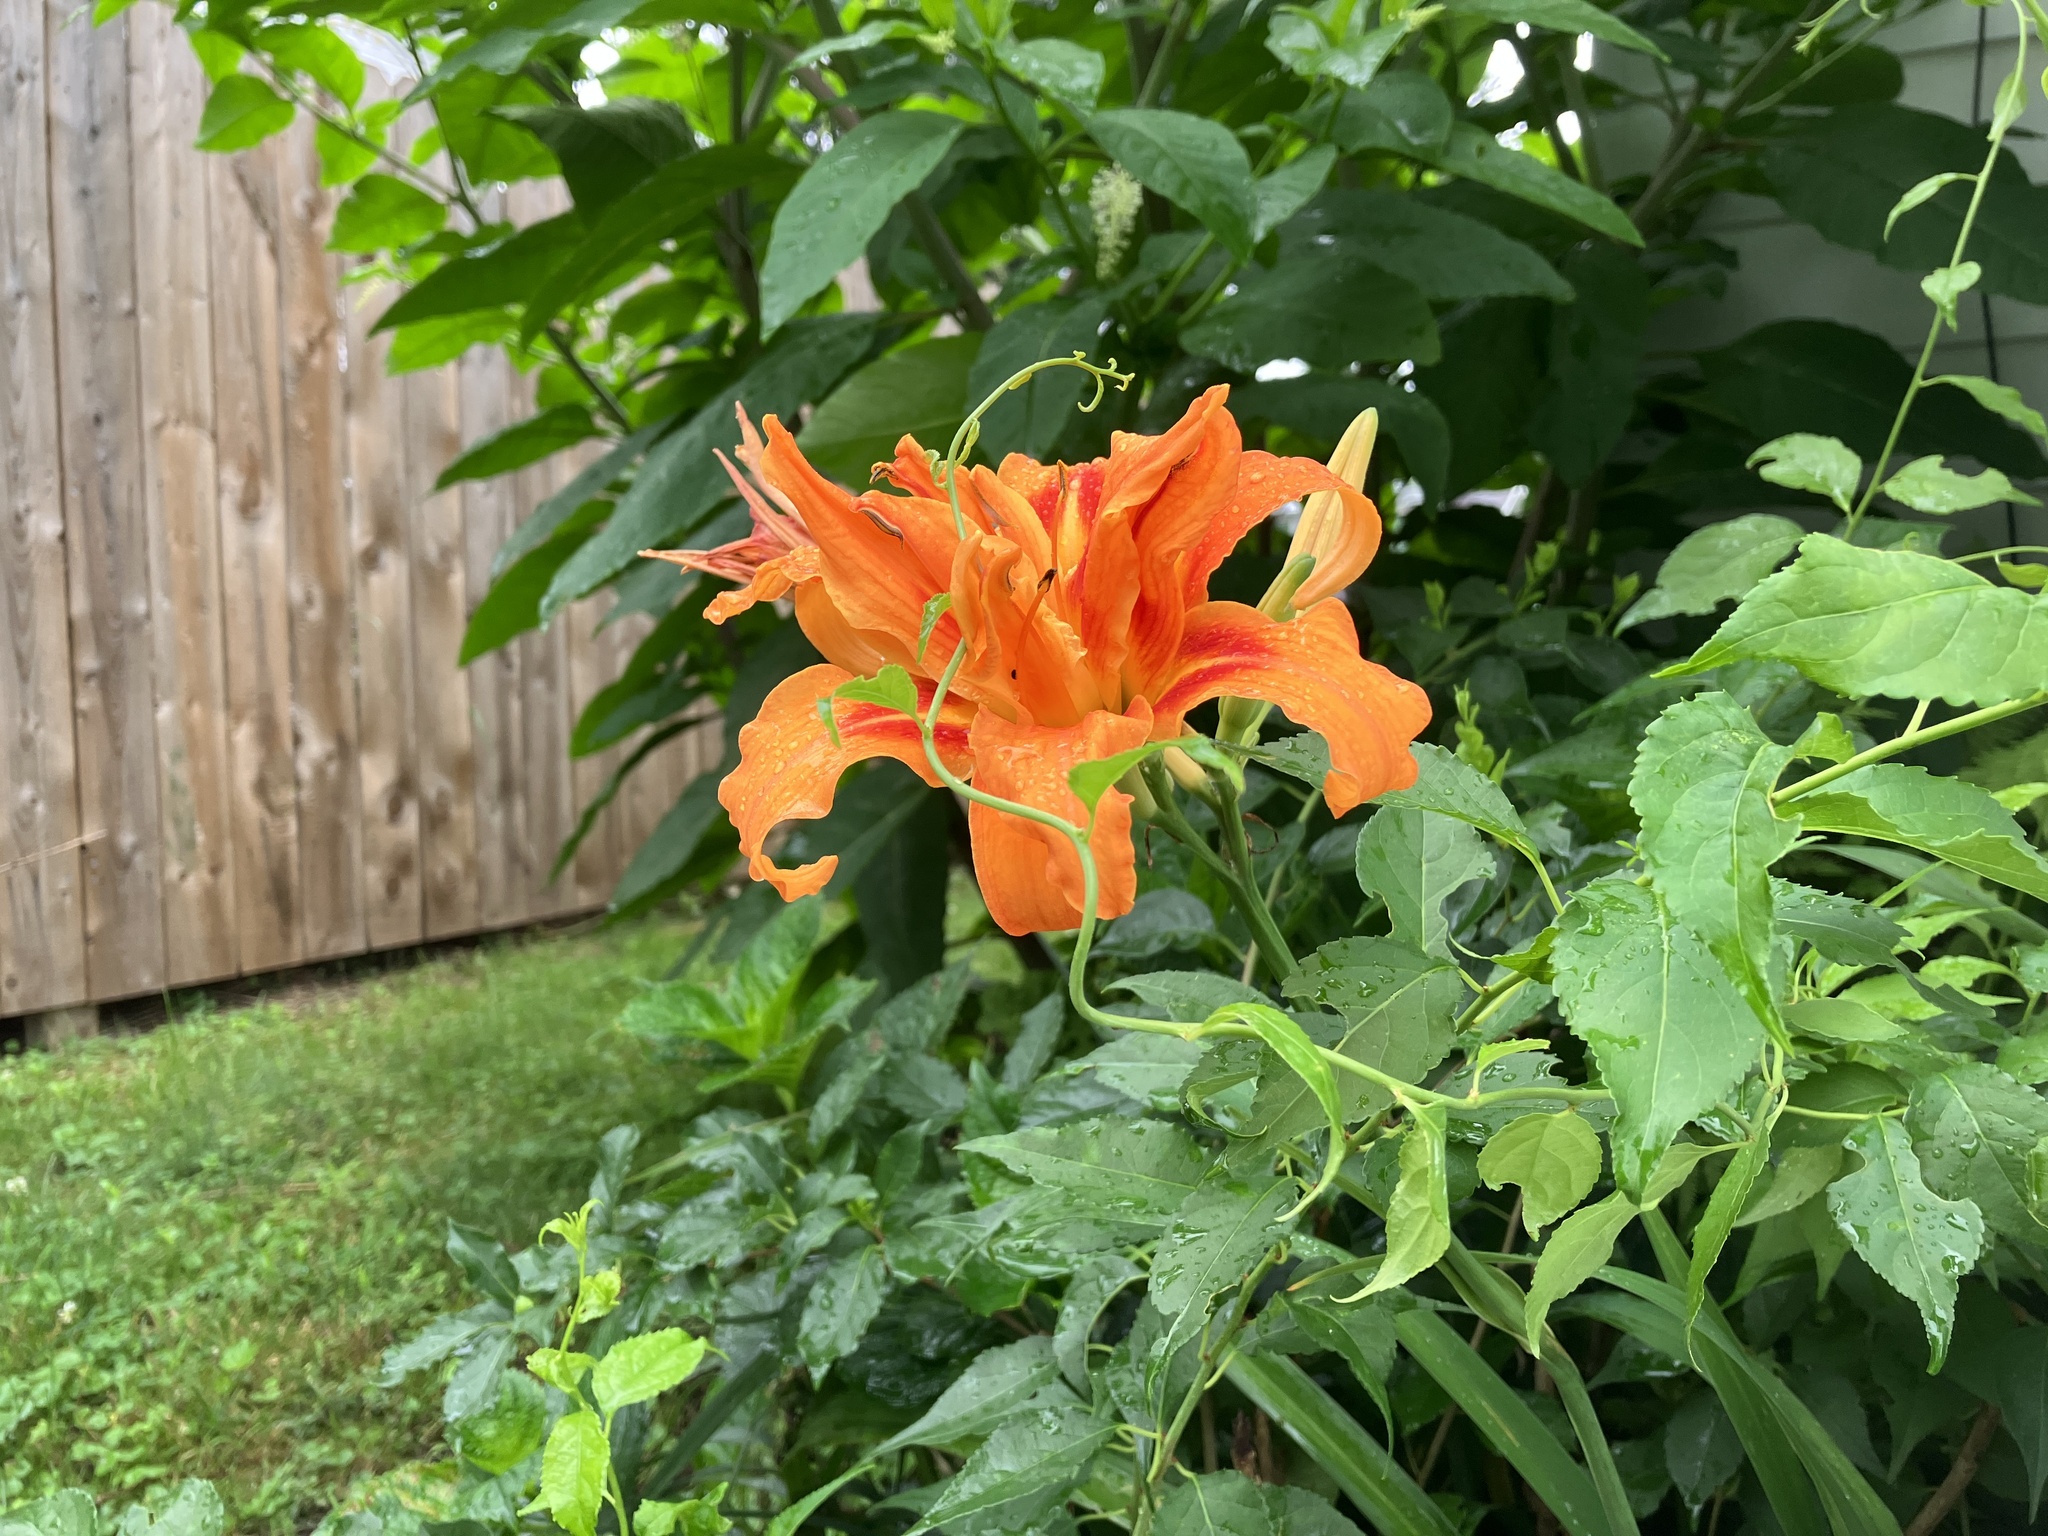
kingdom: Plantae
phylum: Tracheophyta
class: Liliopsida
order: Asparagales
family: Asphodelaceae
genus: Hemerocallis
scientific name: Hemerocallis fulva
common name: Orange day-lily
